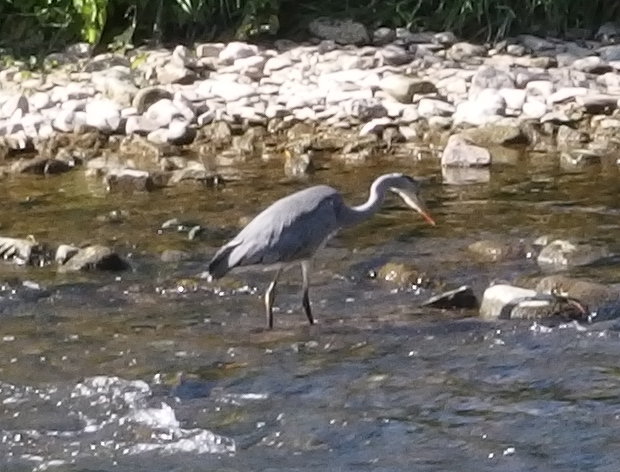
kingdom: Animalia
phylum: Chordata
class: Aves
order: Pelecaniformes
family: Ardeidae
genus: Ardea
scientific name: Ardea cinerea
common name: Grey heron
